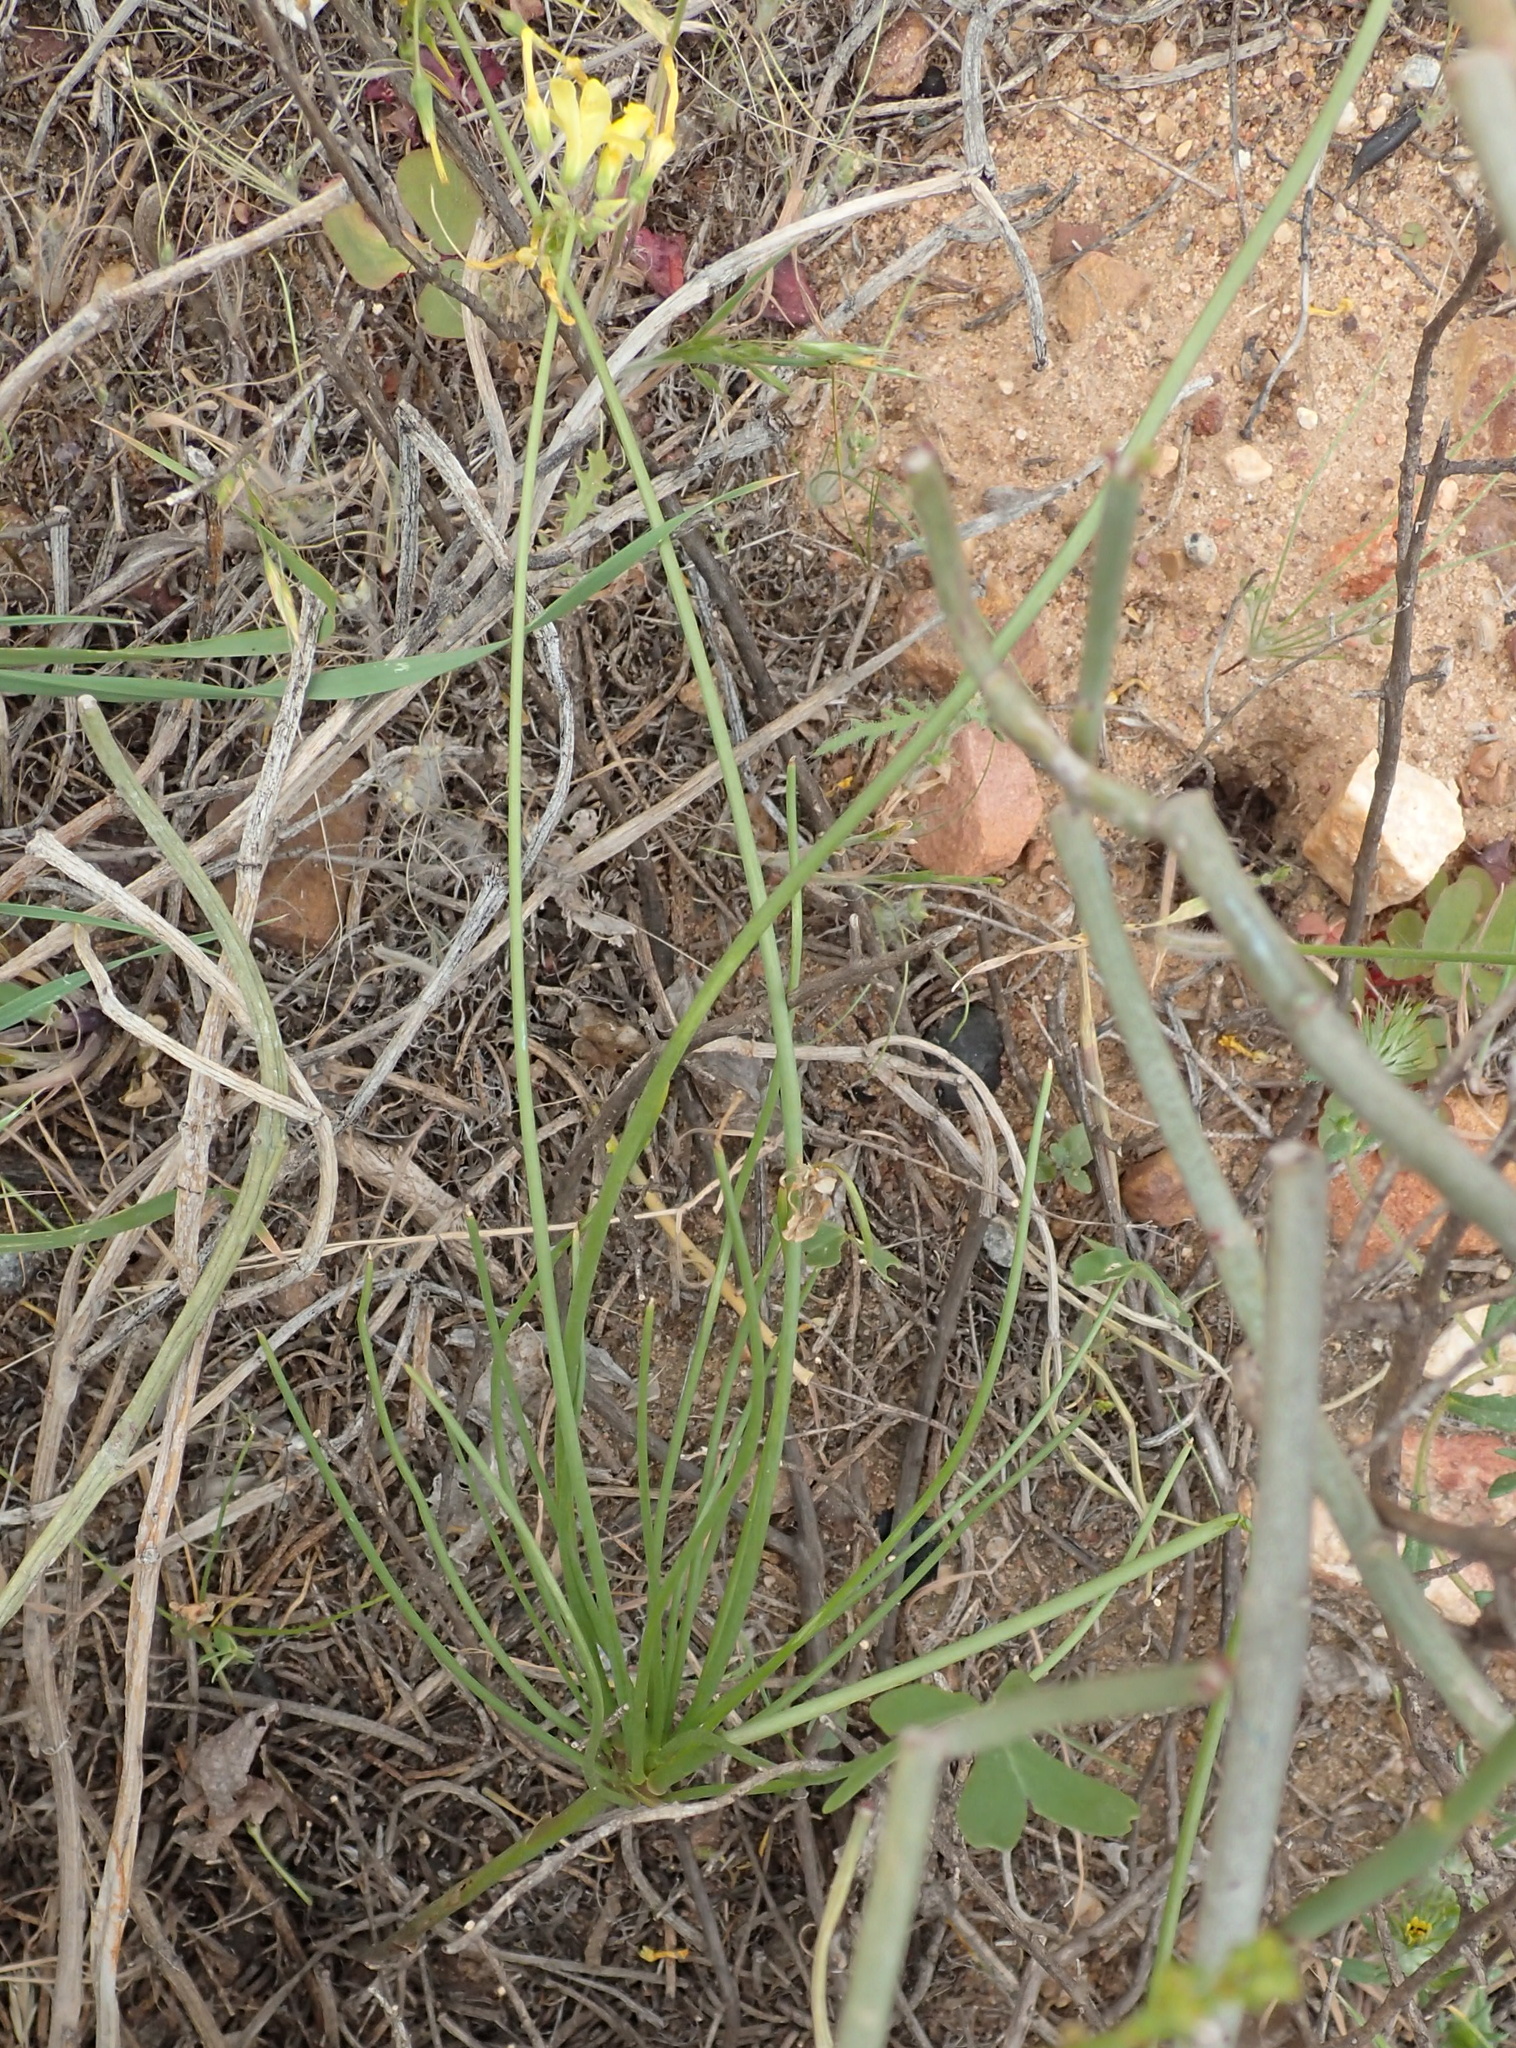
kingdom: Plantae
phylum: Tracheophyta
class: Magnoliopsida
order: Oxalidales
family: Oxalidaceae
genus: Oxalis
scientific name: Oxalis pes-caprae
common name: Bermuda-buttercup
